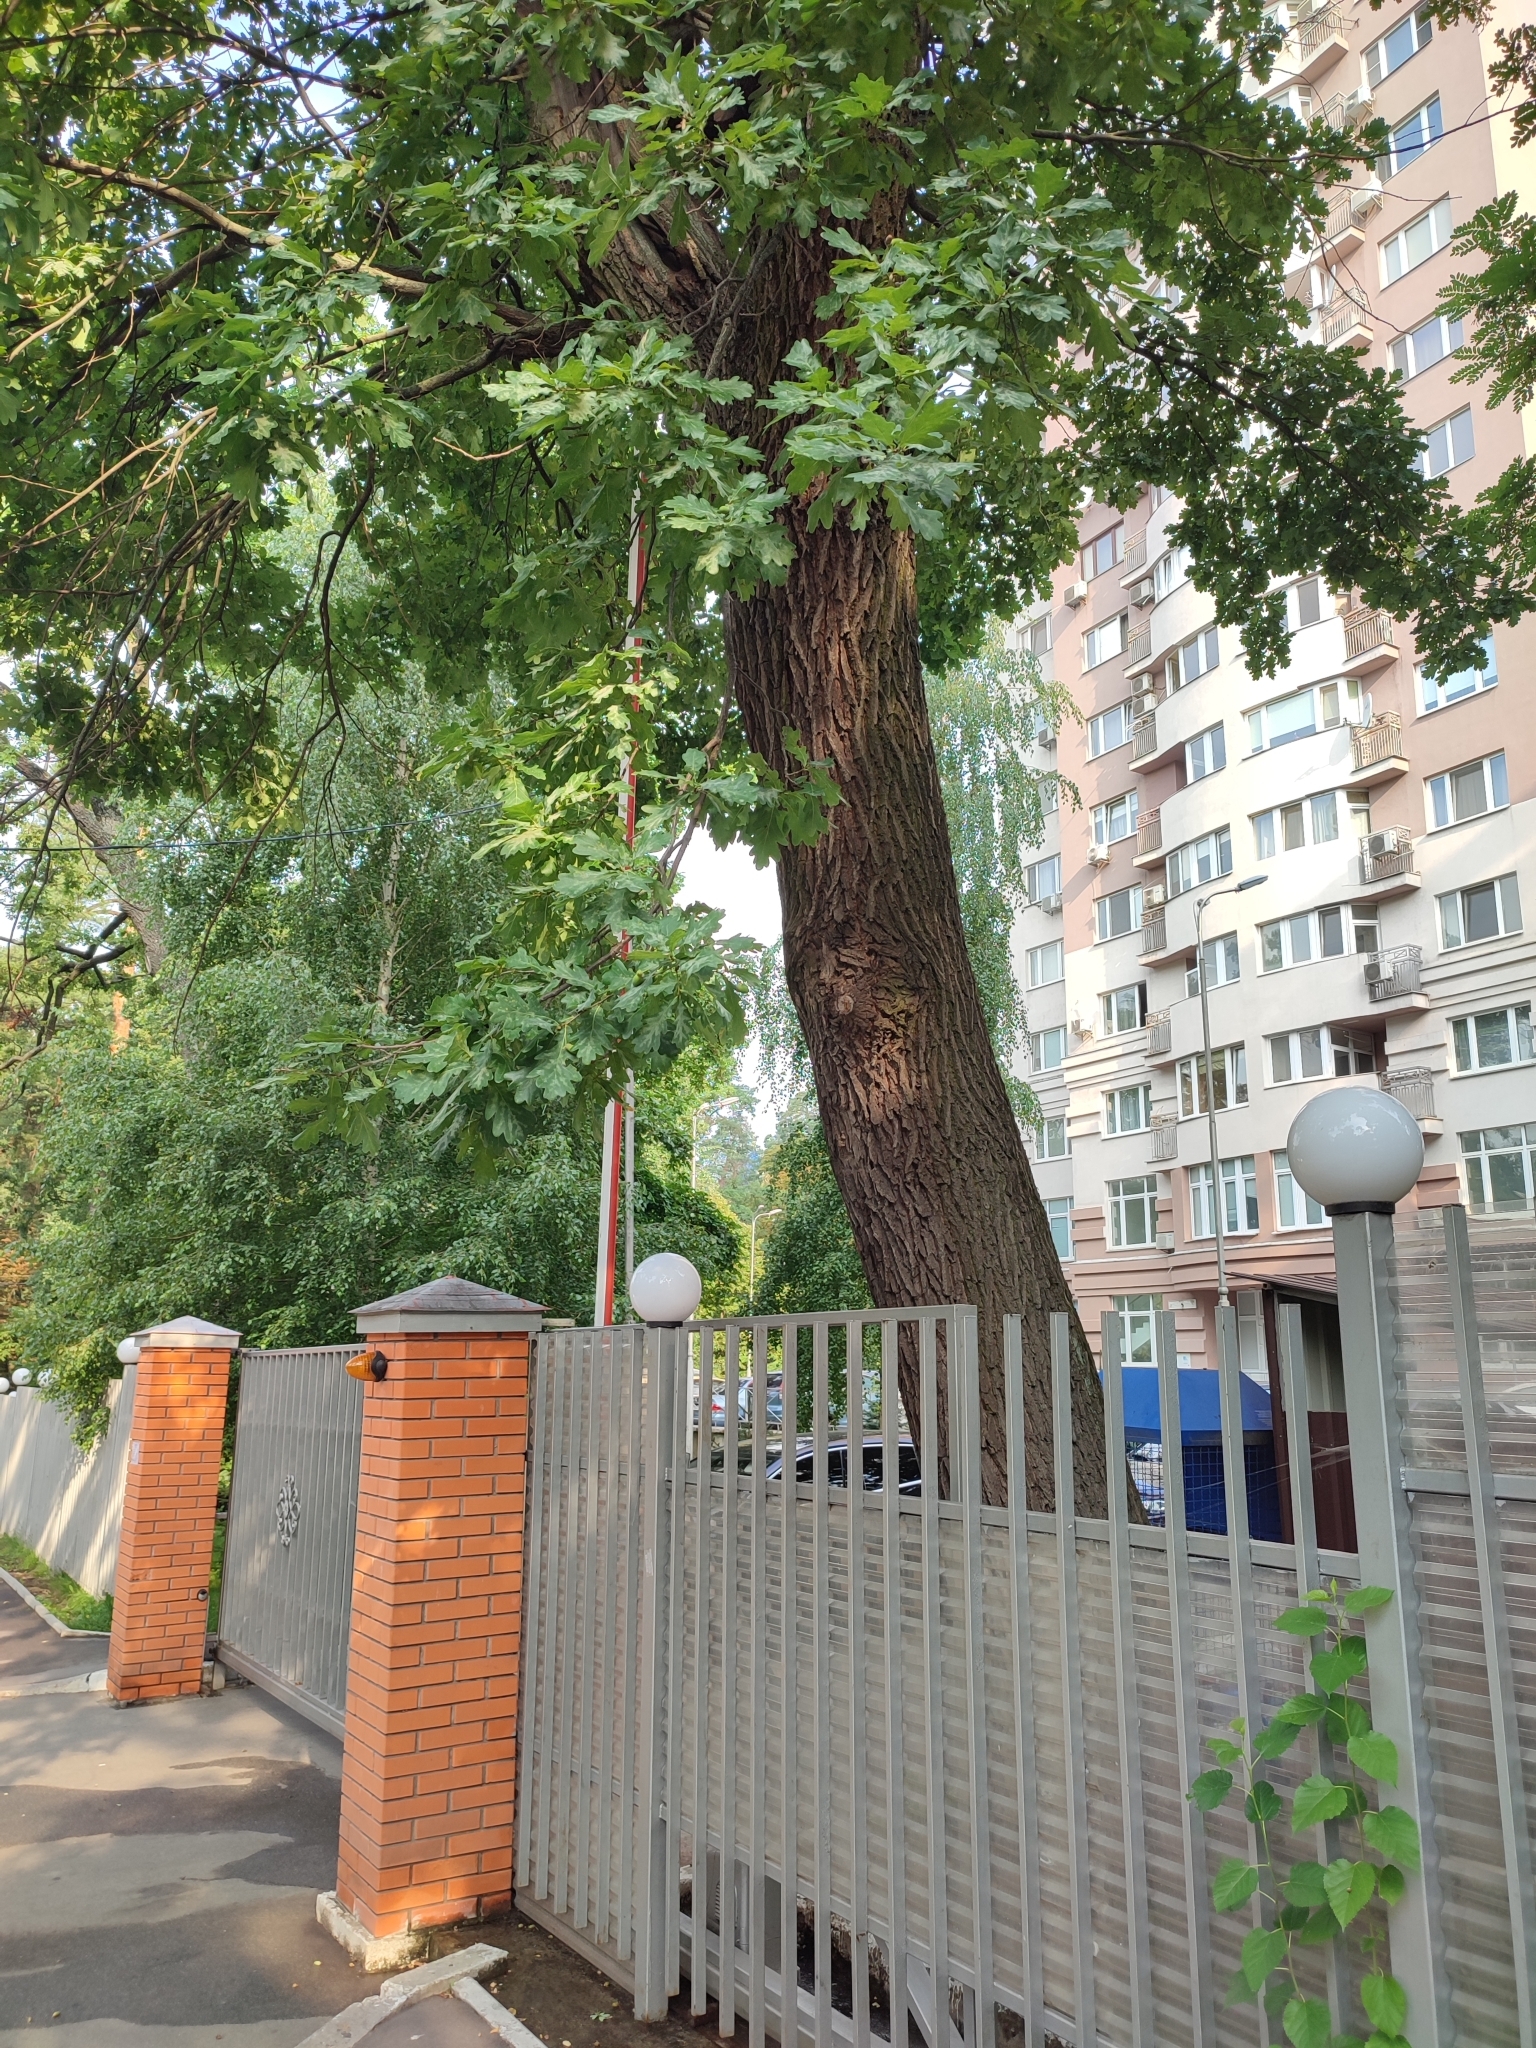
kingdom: Plantae
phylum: Tracheophyta
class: Magnoliopsida
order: Fagales
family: Fagaceae
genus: Quercus
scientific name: Quercus robur
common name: Pedunculate oak
